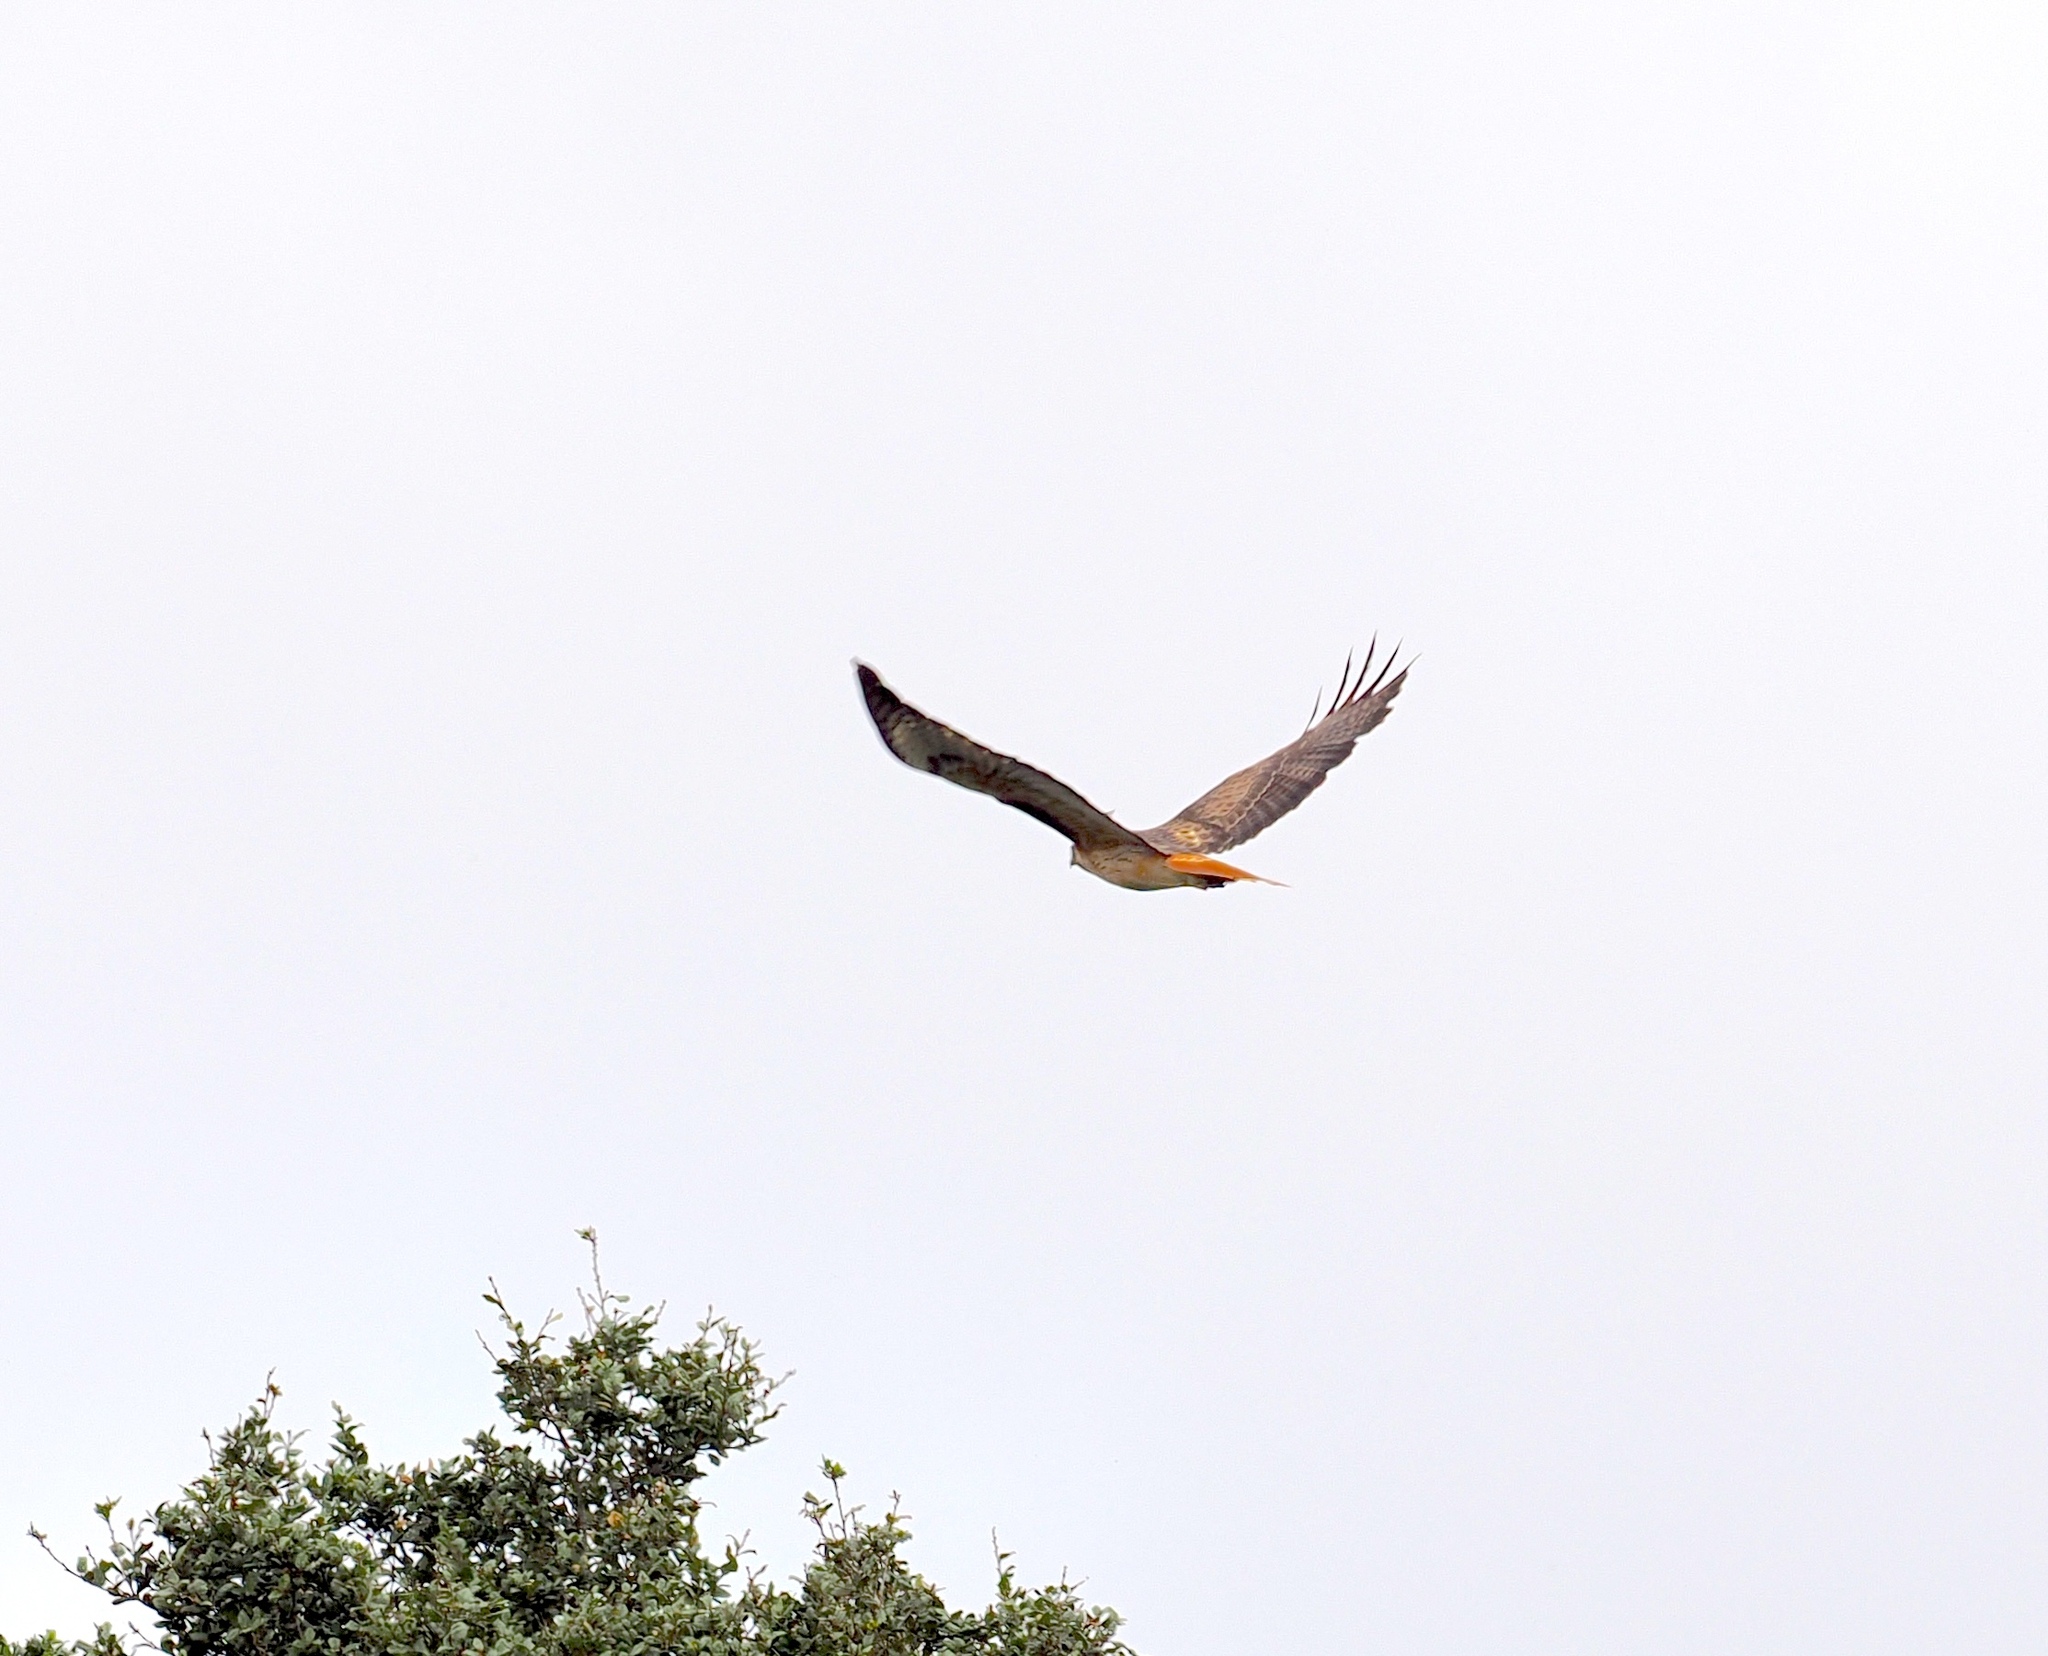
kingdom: Animalia
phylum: Chordata
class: Aves
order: Accipitriformes
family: Accipitridae
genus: Buteo
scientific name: Buteo jamaicensis
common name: Red-tailed hawk
